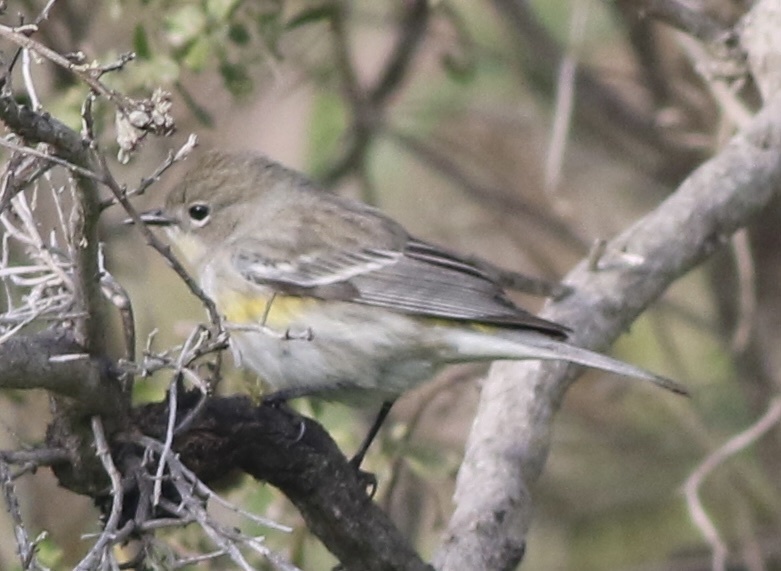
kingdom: Animalia
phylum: Chordata
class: Aves
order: Passeriformes
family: Parulidae
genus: Setophaga
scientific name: Setophaga coronata
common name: Myrtle warbler
